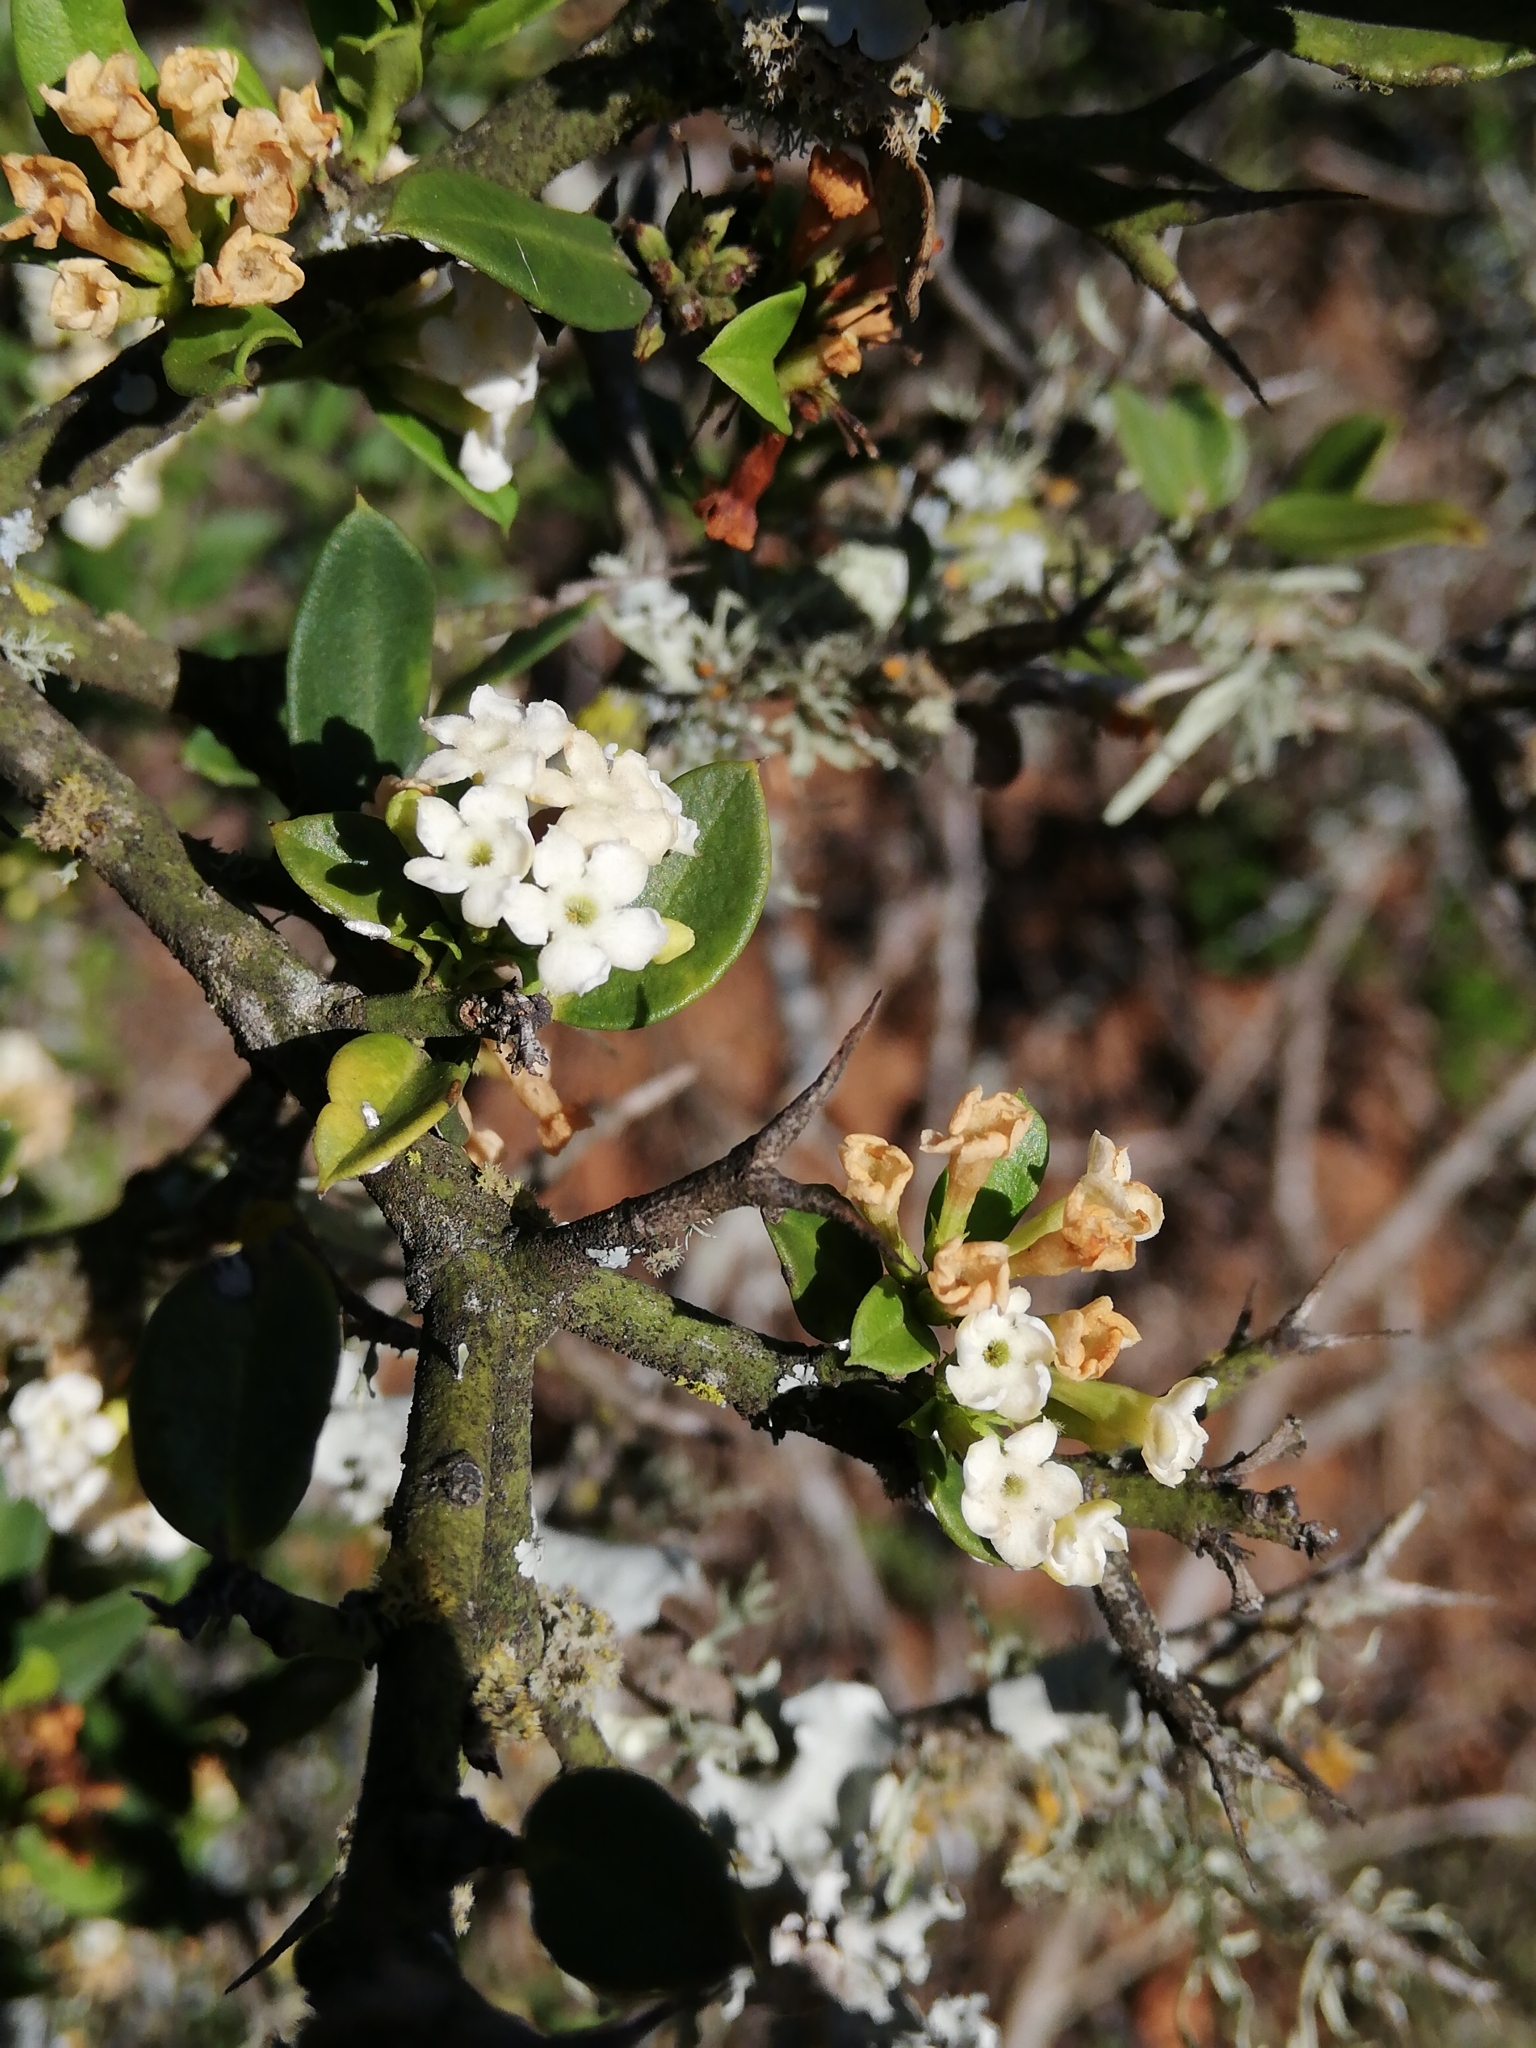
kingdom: Plantae
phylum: Tracheophyta
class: Magnoliopsida
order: Gentianales
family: Apocynaceae
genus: Carissa
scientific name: Carissa haematocarpa
